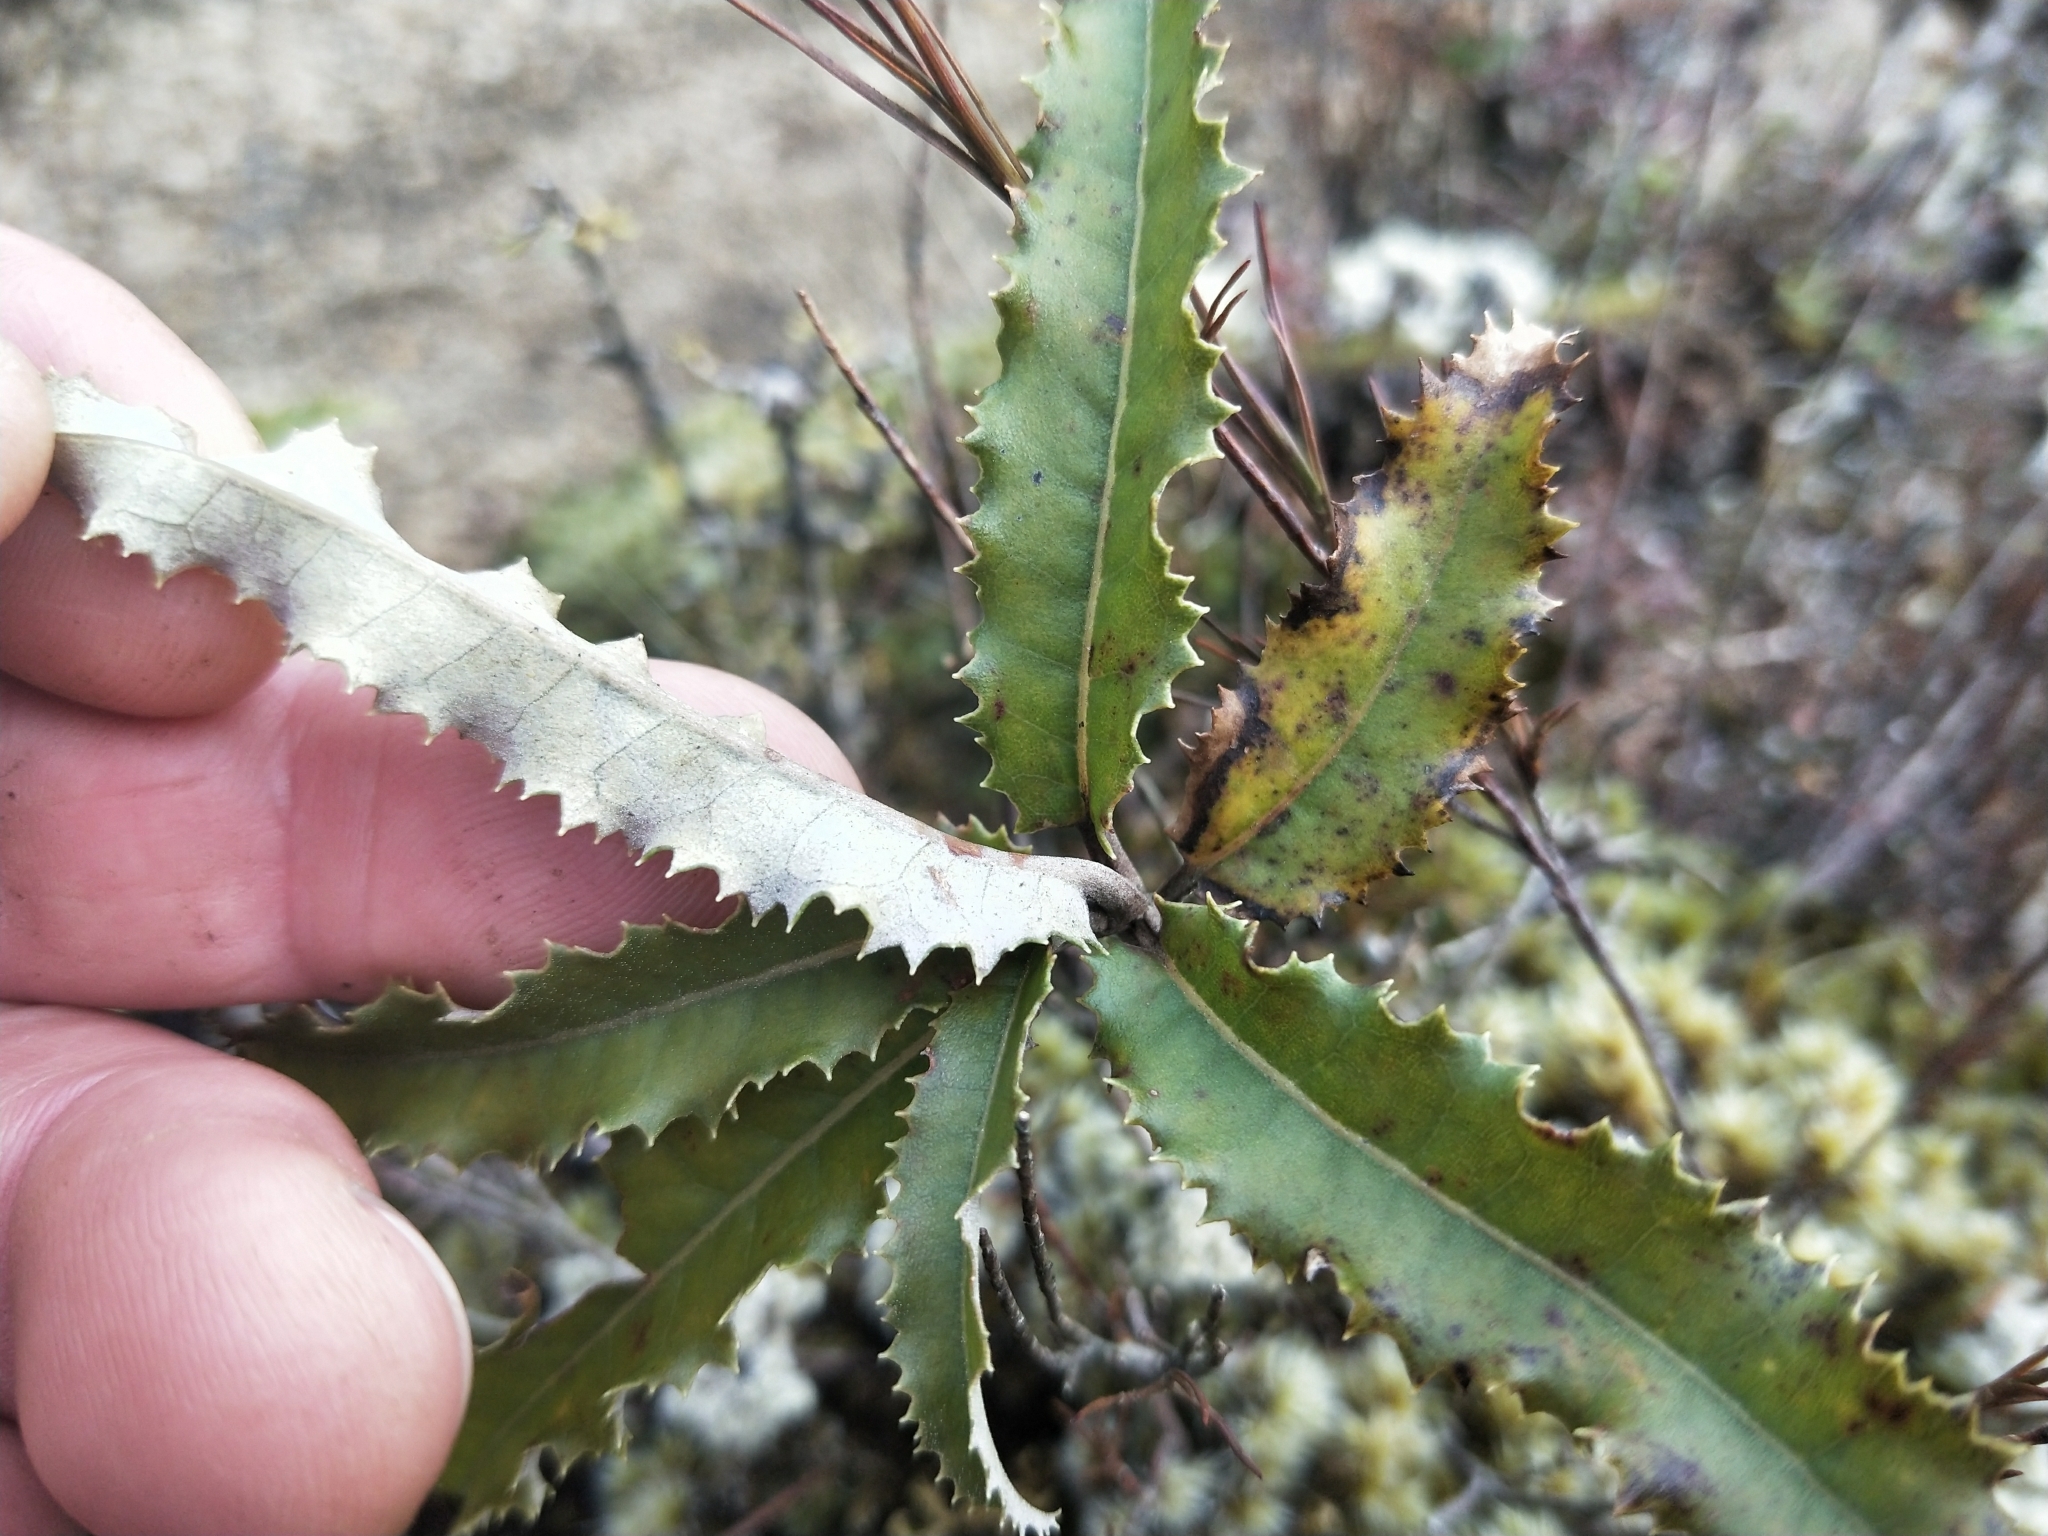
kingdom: Plantae
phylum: Tracheophyta
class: Magnoliopsida
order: Asterales
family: Asteraceae
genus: Olearia
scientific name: Olearia ilicifolia
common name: Maori-holly
